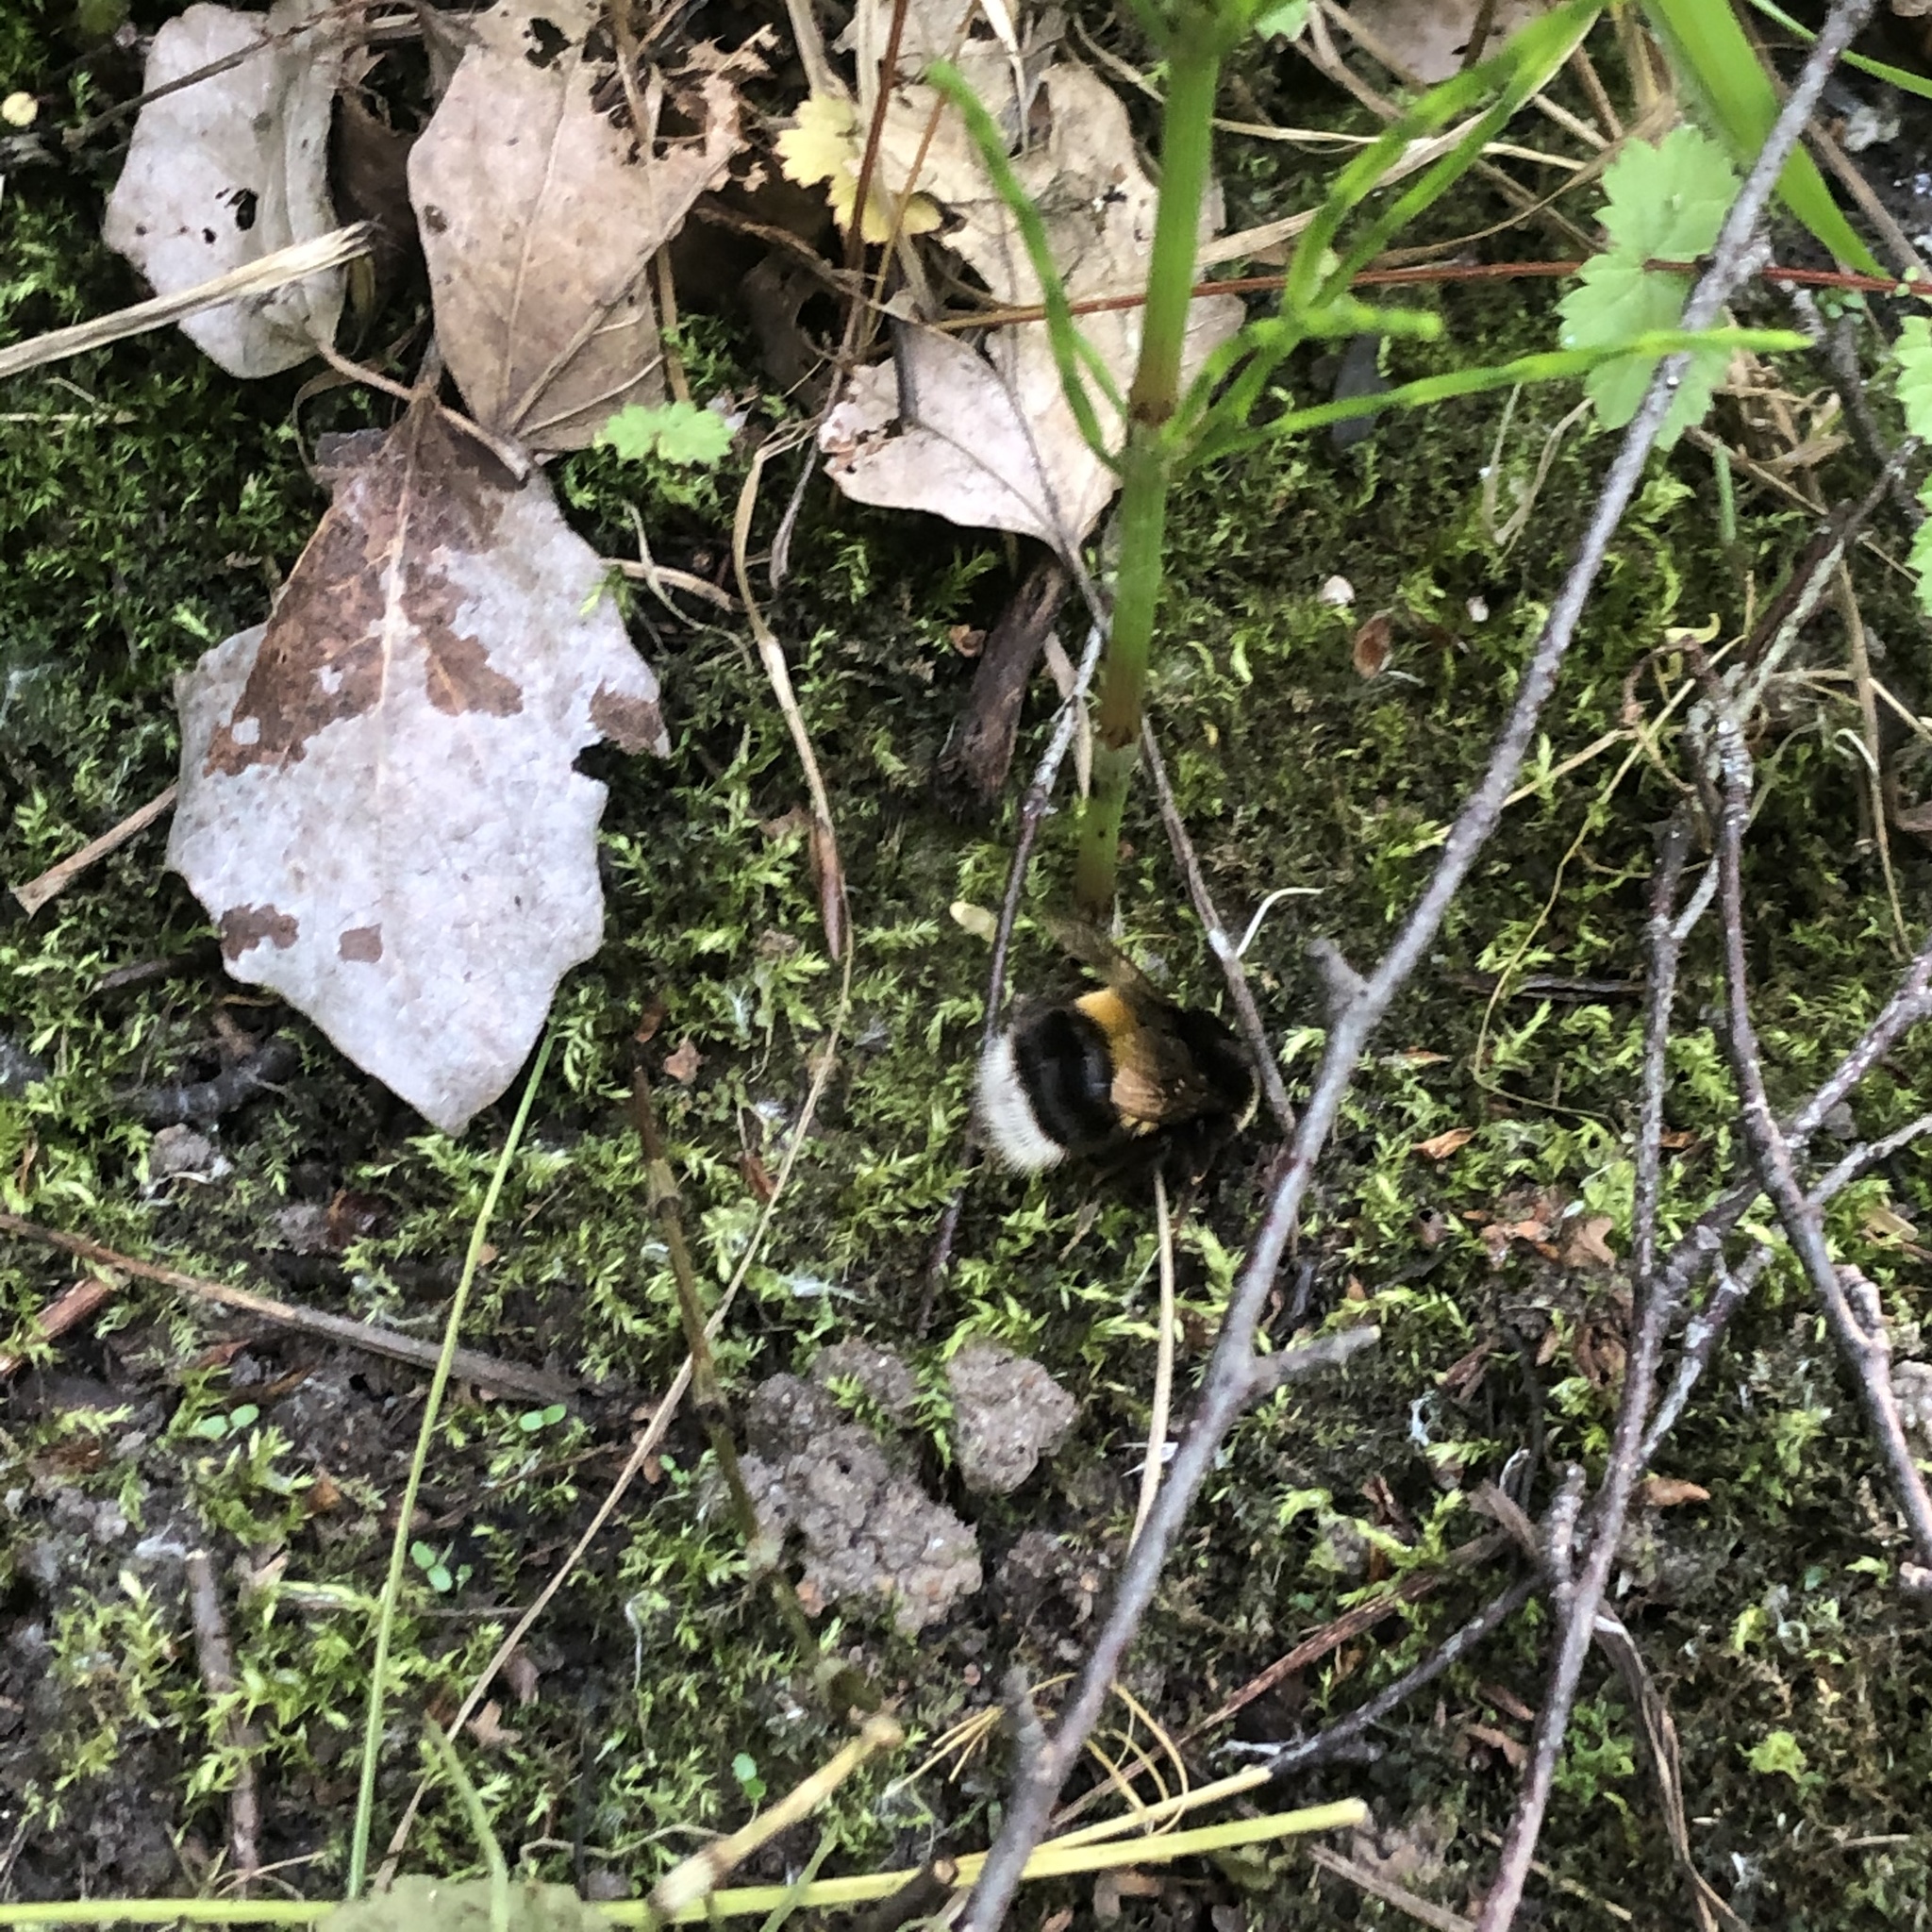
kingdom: Animalia
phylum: Arthropoda
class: Insecta
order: Hymenoptera
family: Apidae
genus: Bombus
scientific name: Bombus terrestris
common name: Buff-tailed bumblebee
